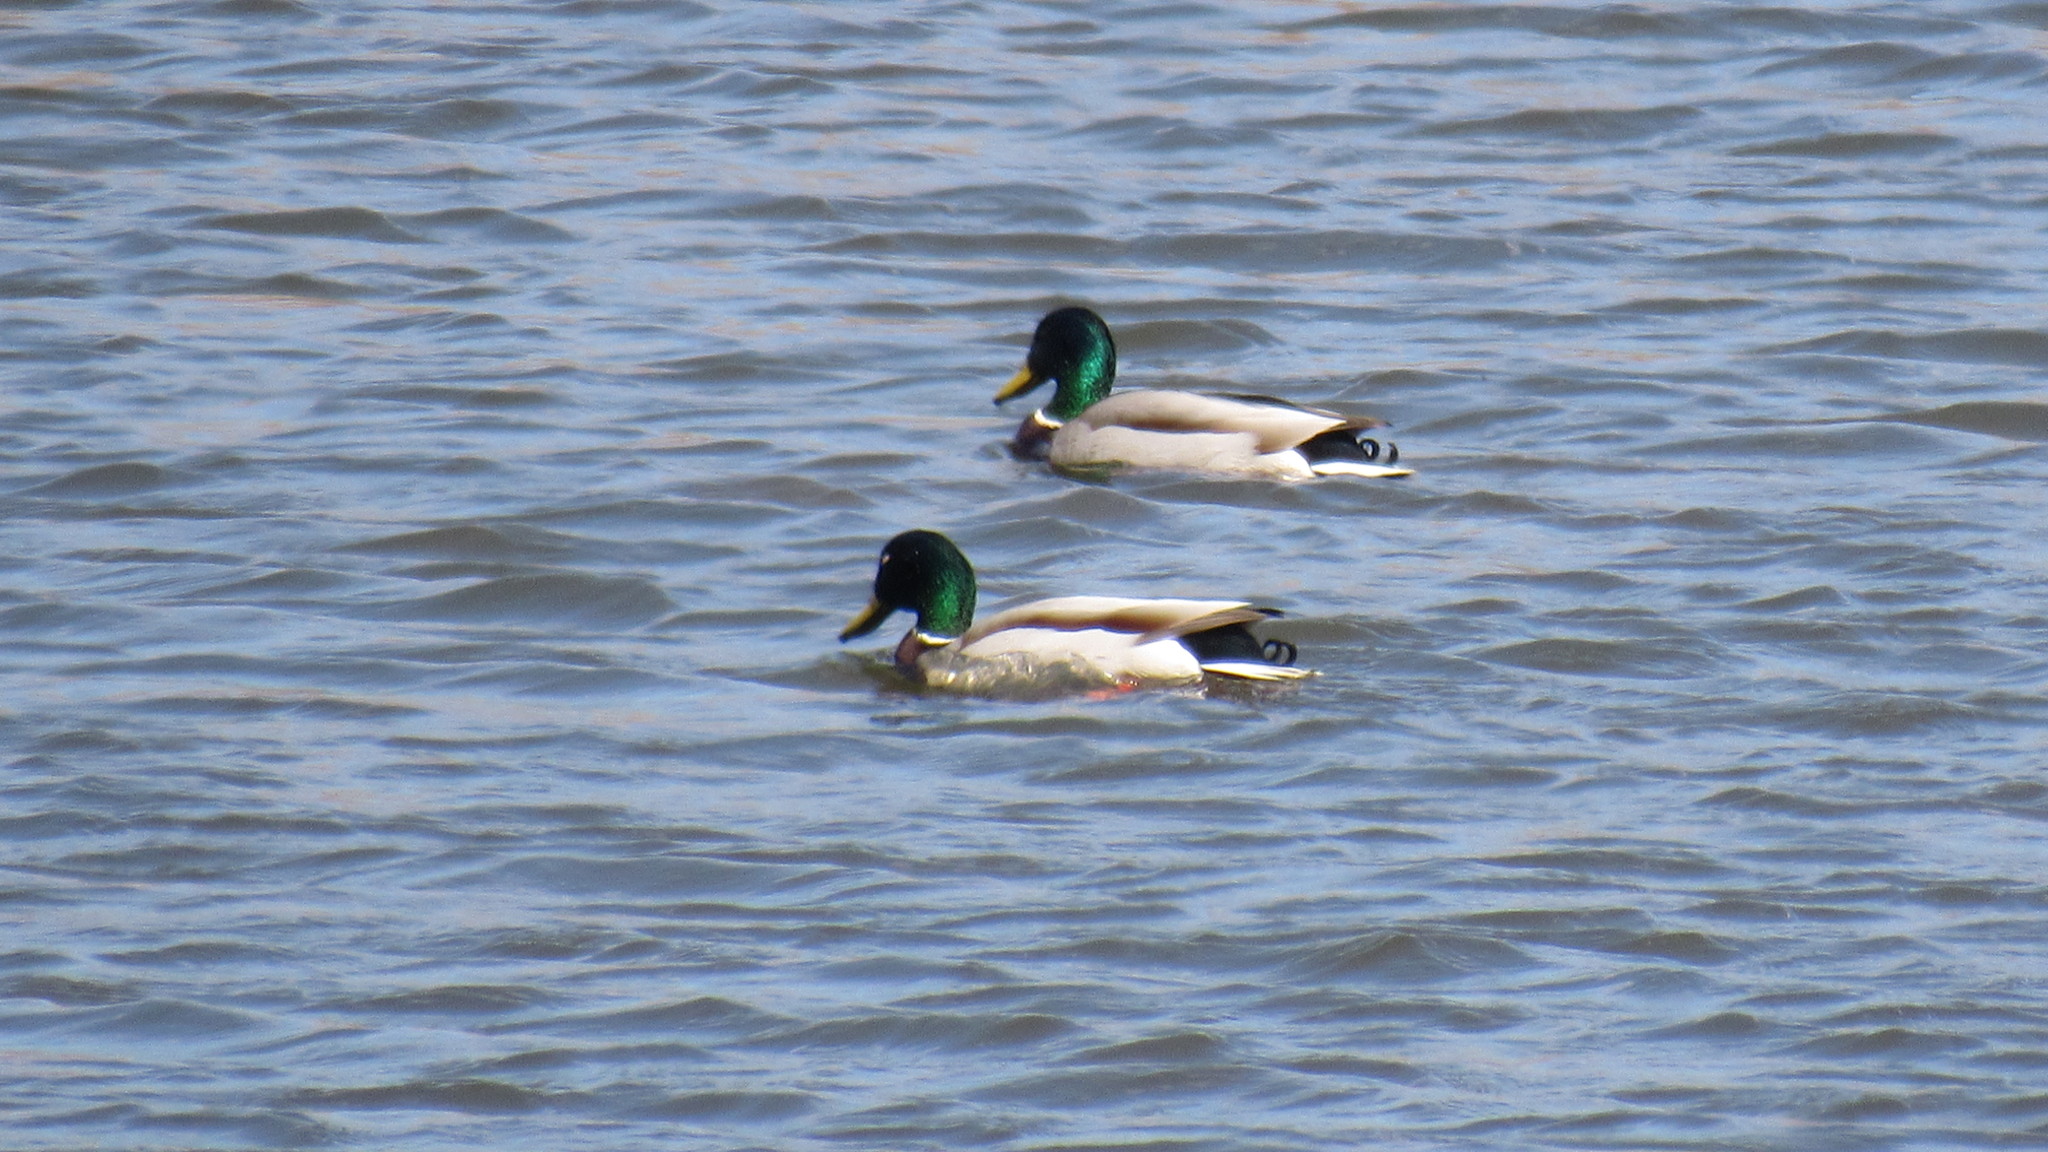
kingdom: Animalia
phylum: Chordata
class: Aves
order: Anseriformes
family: Anatidae
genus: Anas
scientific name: Anas platyrhynchos
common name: Mallard
